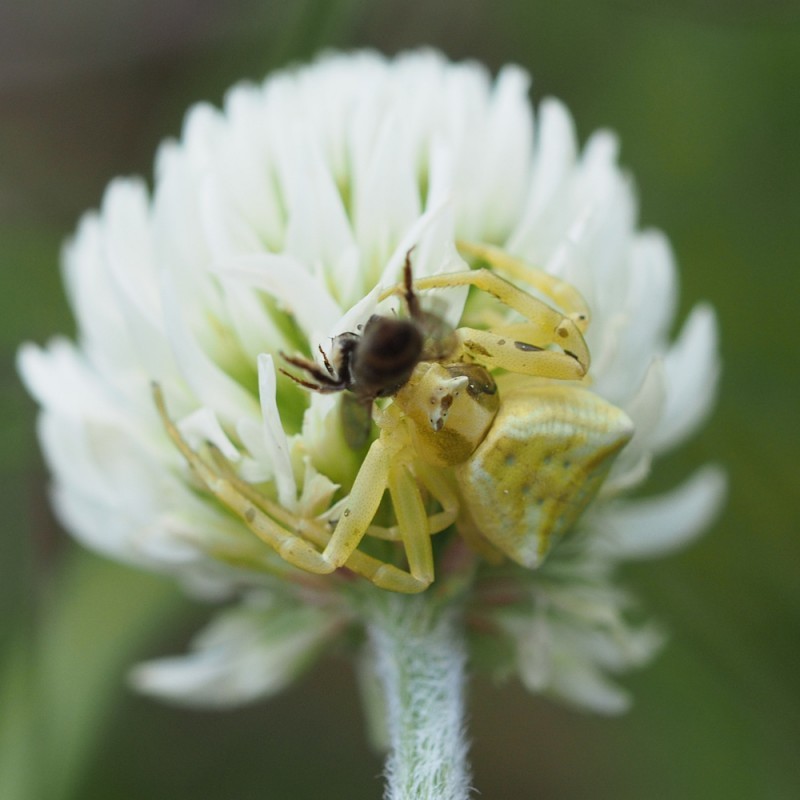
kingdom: Animalia
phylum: Arthropoda
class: Arachnida
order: Araneae
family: Thomisidae
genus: Thomisus
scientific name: Thomisus onustus
